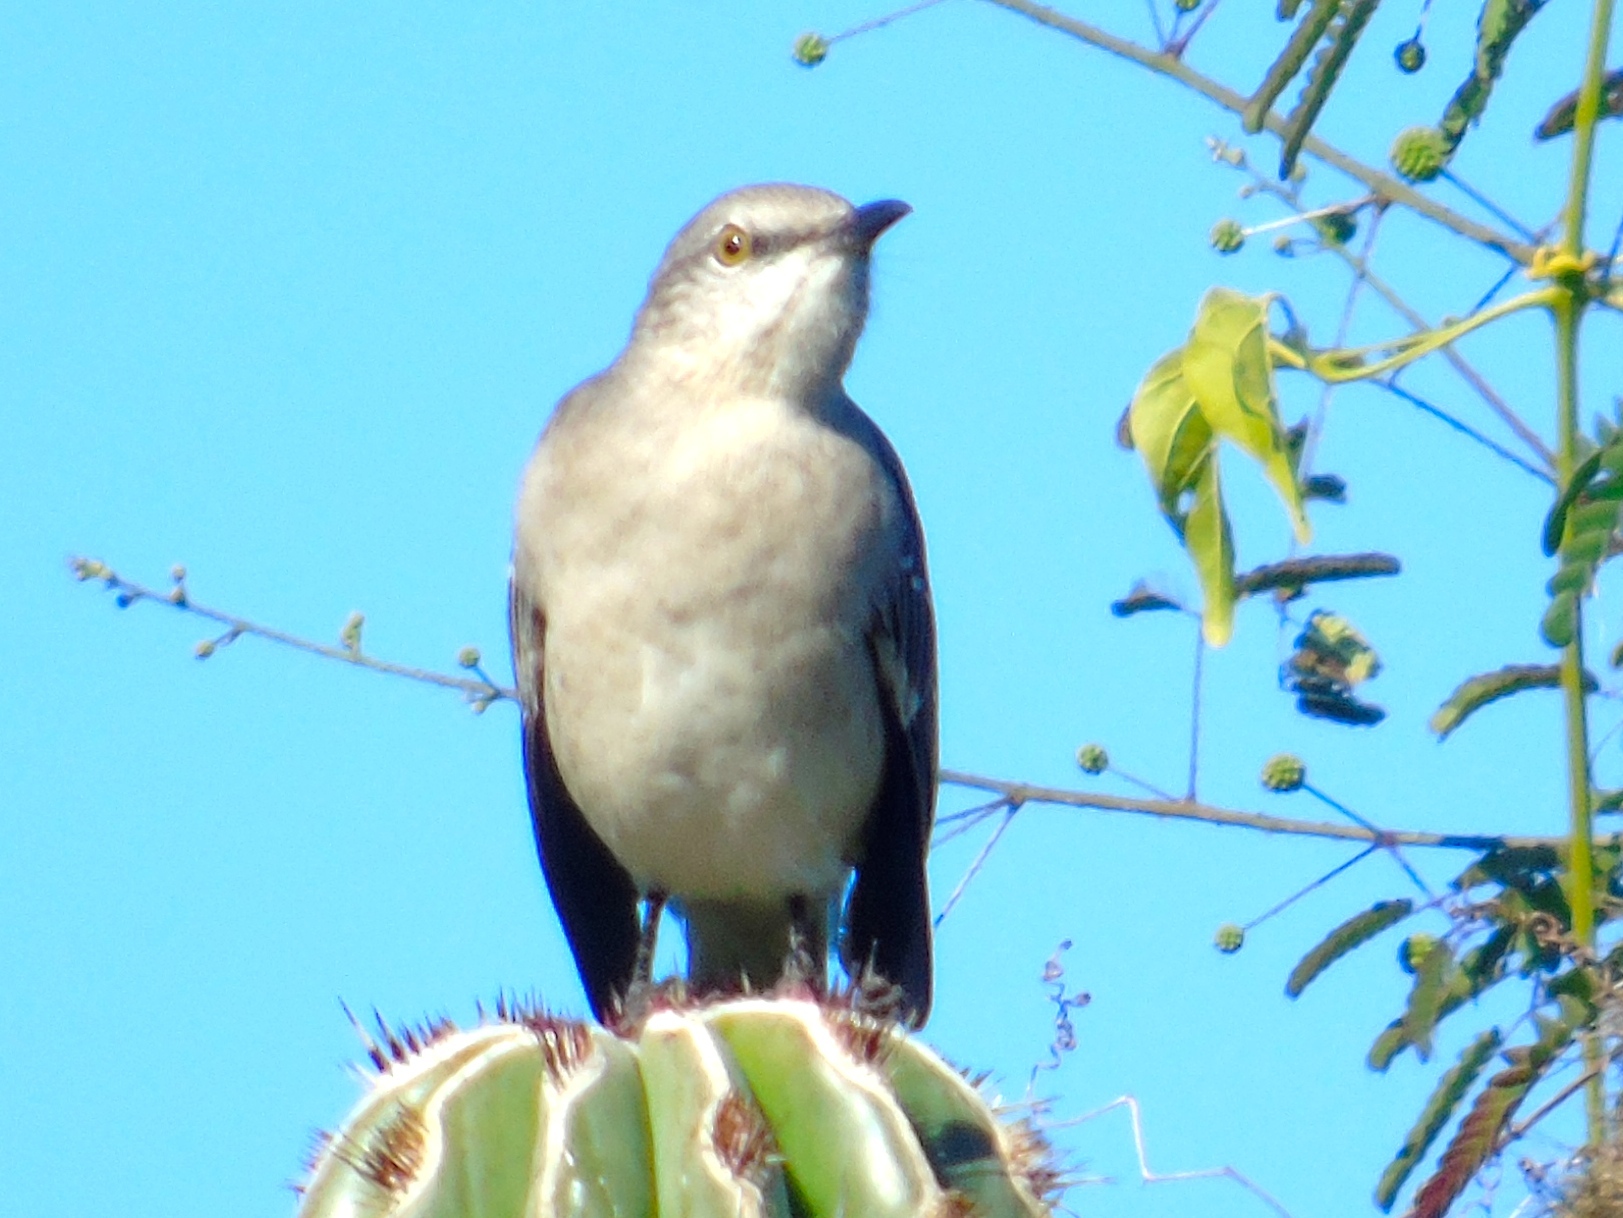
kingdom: Animalia
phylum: Chordata
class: Aves
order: Passeriformes
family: Mimidae
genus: Mimus
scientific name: Mimus polyglottos
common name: Northern mockingbird
